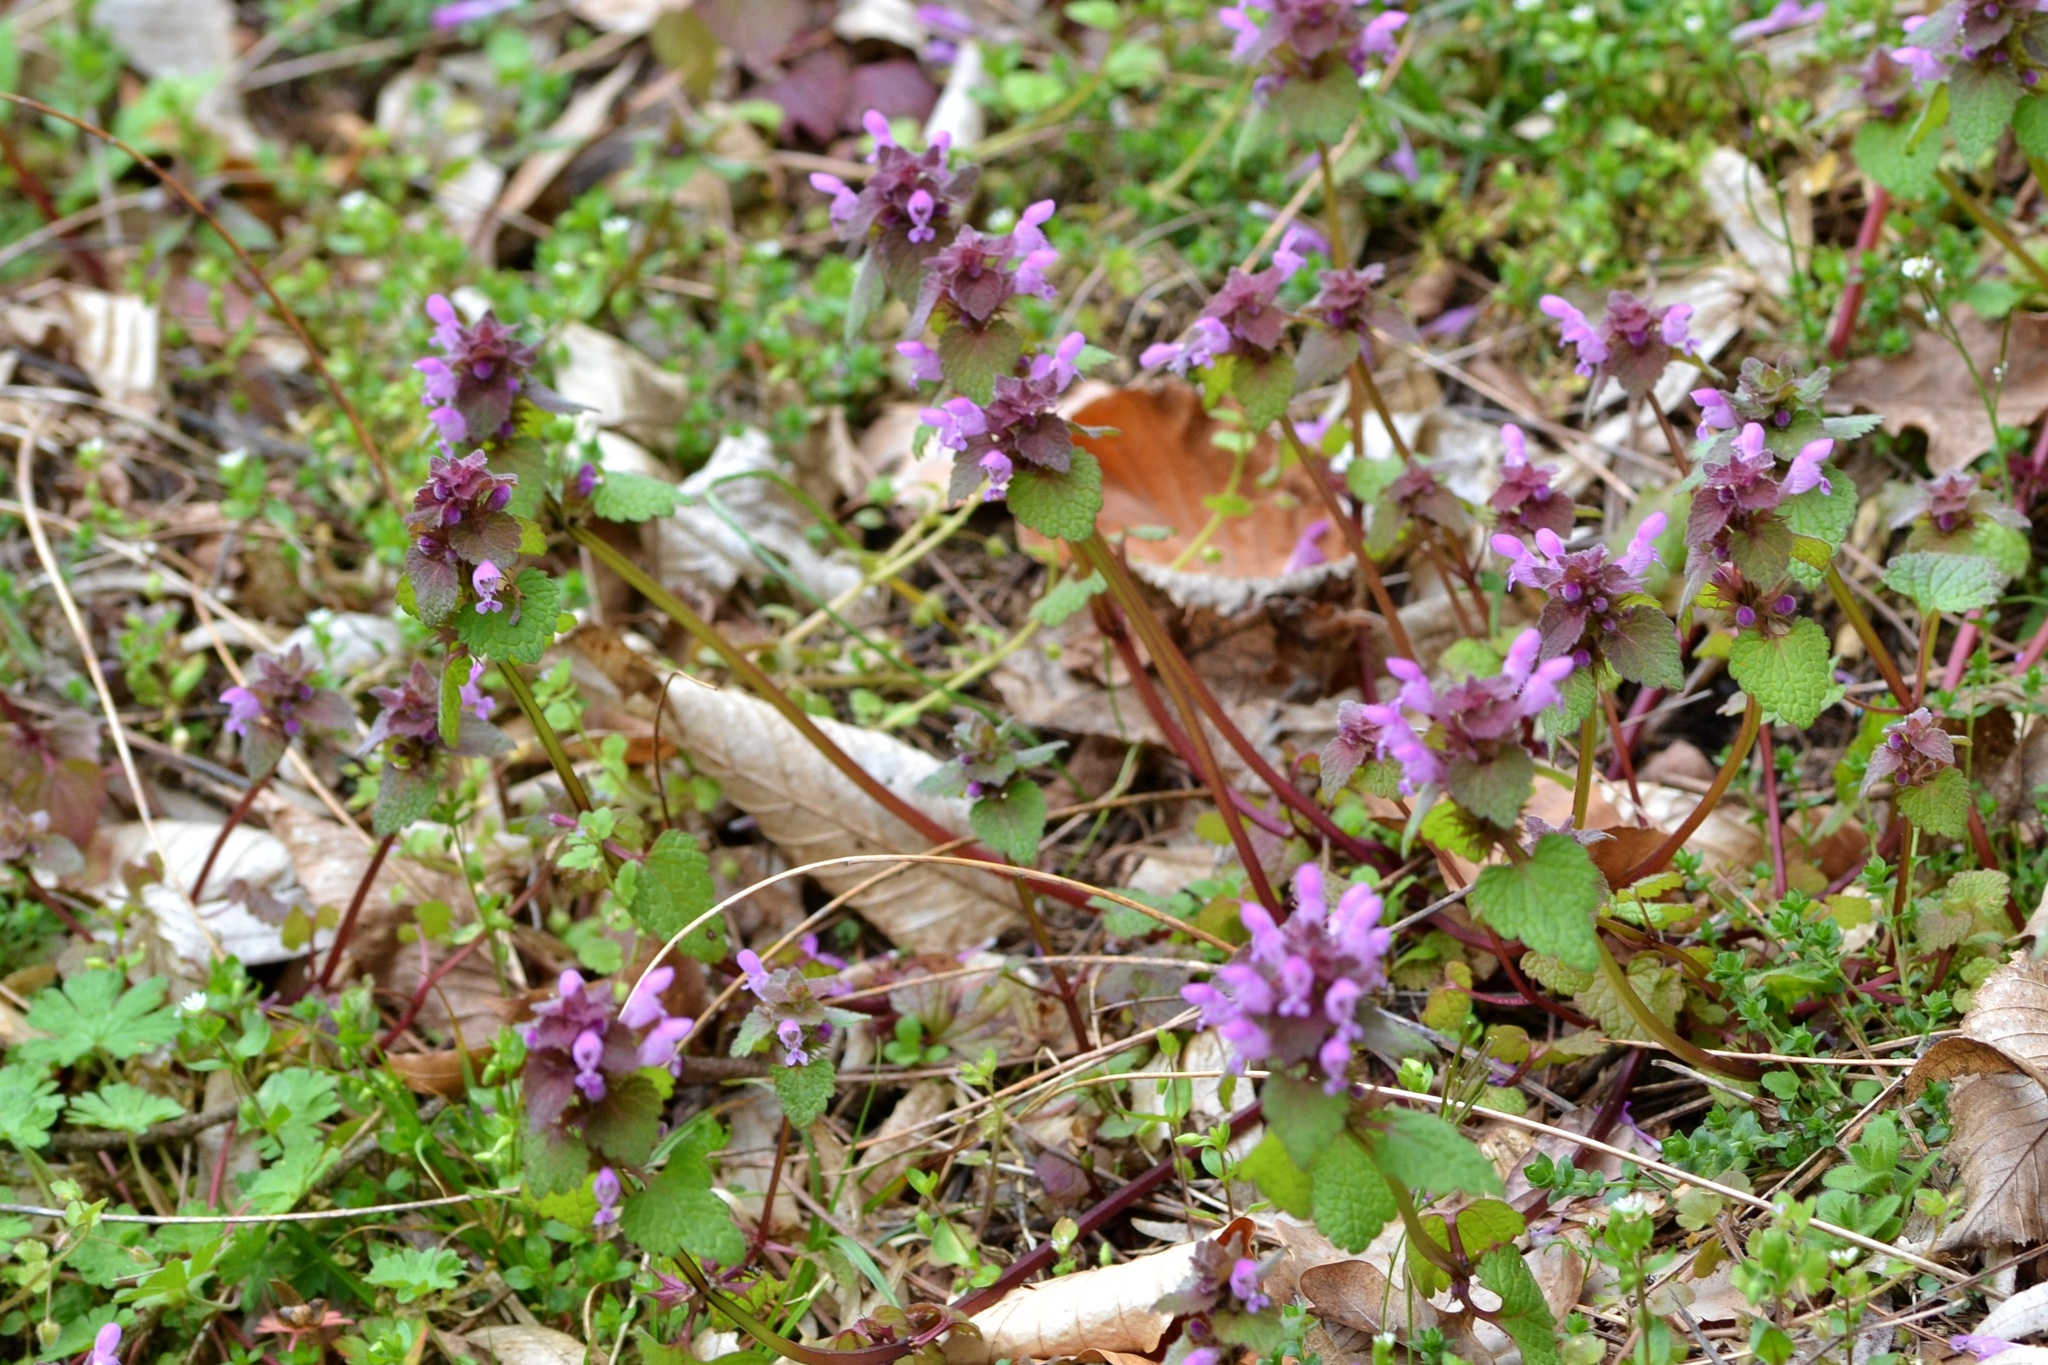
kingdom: Plantae
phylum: Tracheophyta
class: Magnoliopsida
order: Lamiales
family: Lamiaceae
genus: Lamium
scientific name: Lamium purpureum
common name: Red dead-nettle
